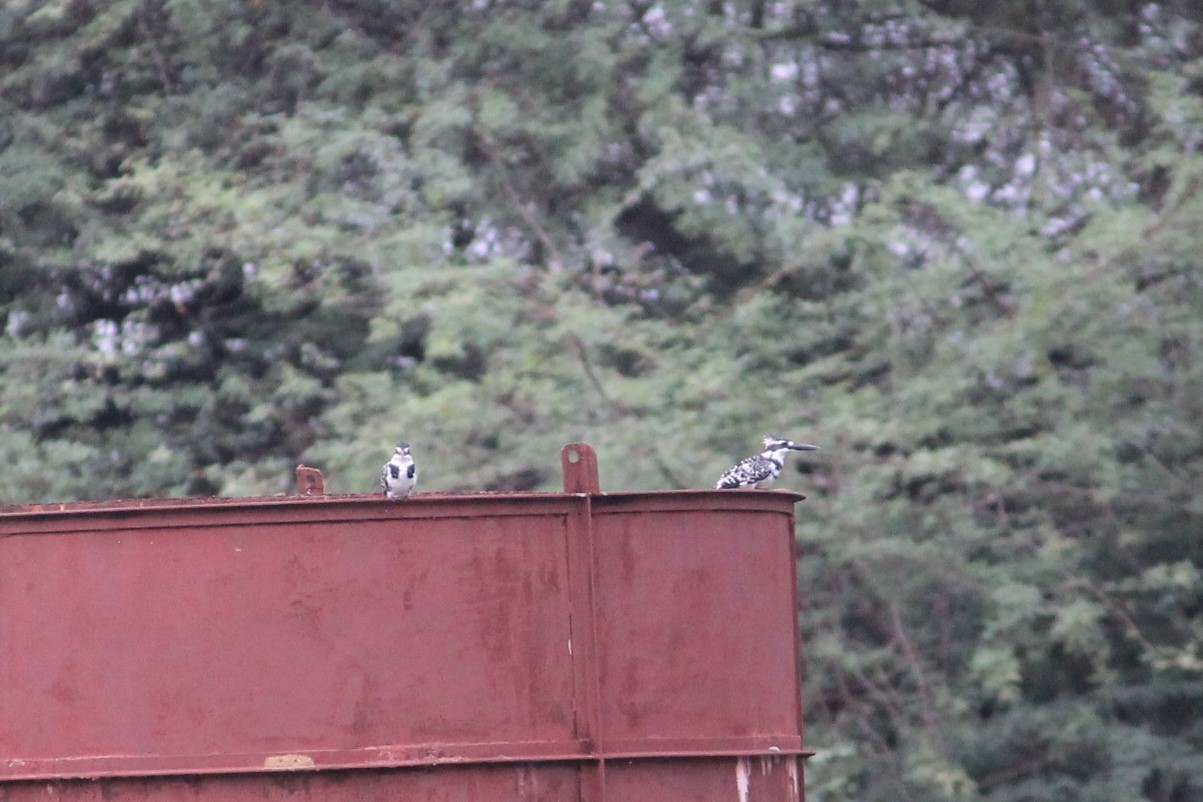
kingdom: Animalia
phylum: Chordata
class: Aves
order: Coraciiformes
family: Alcedinidae
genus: Ceryle
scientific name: Ceryle rudis
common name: Pied kingfisher
